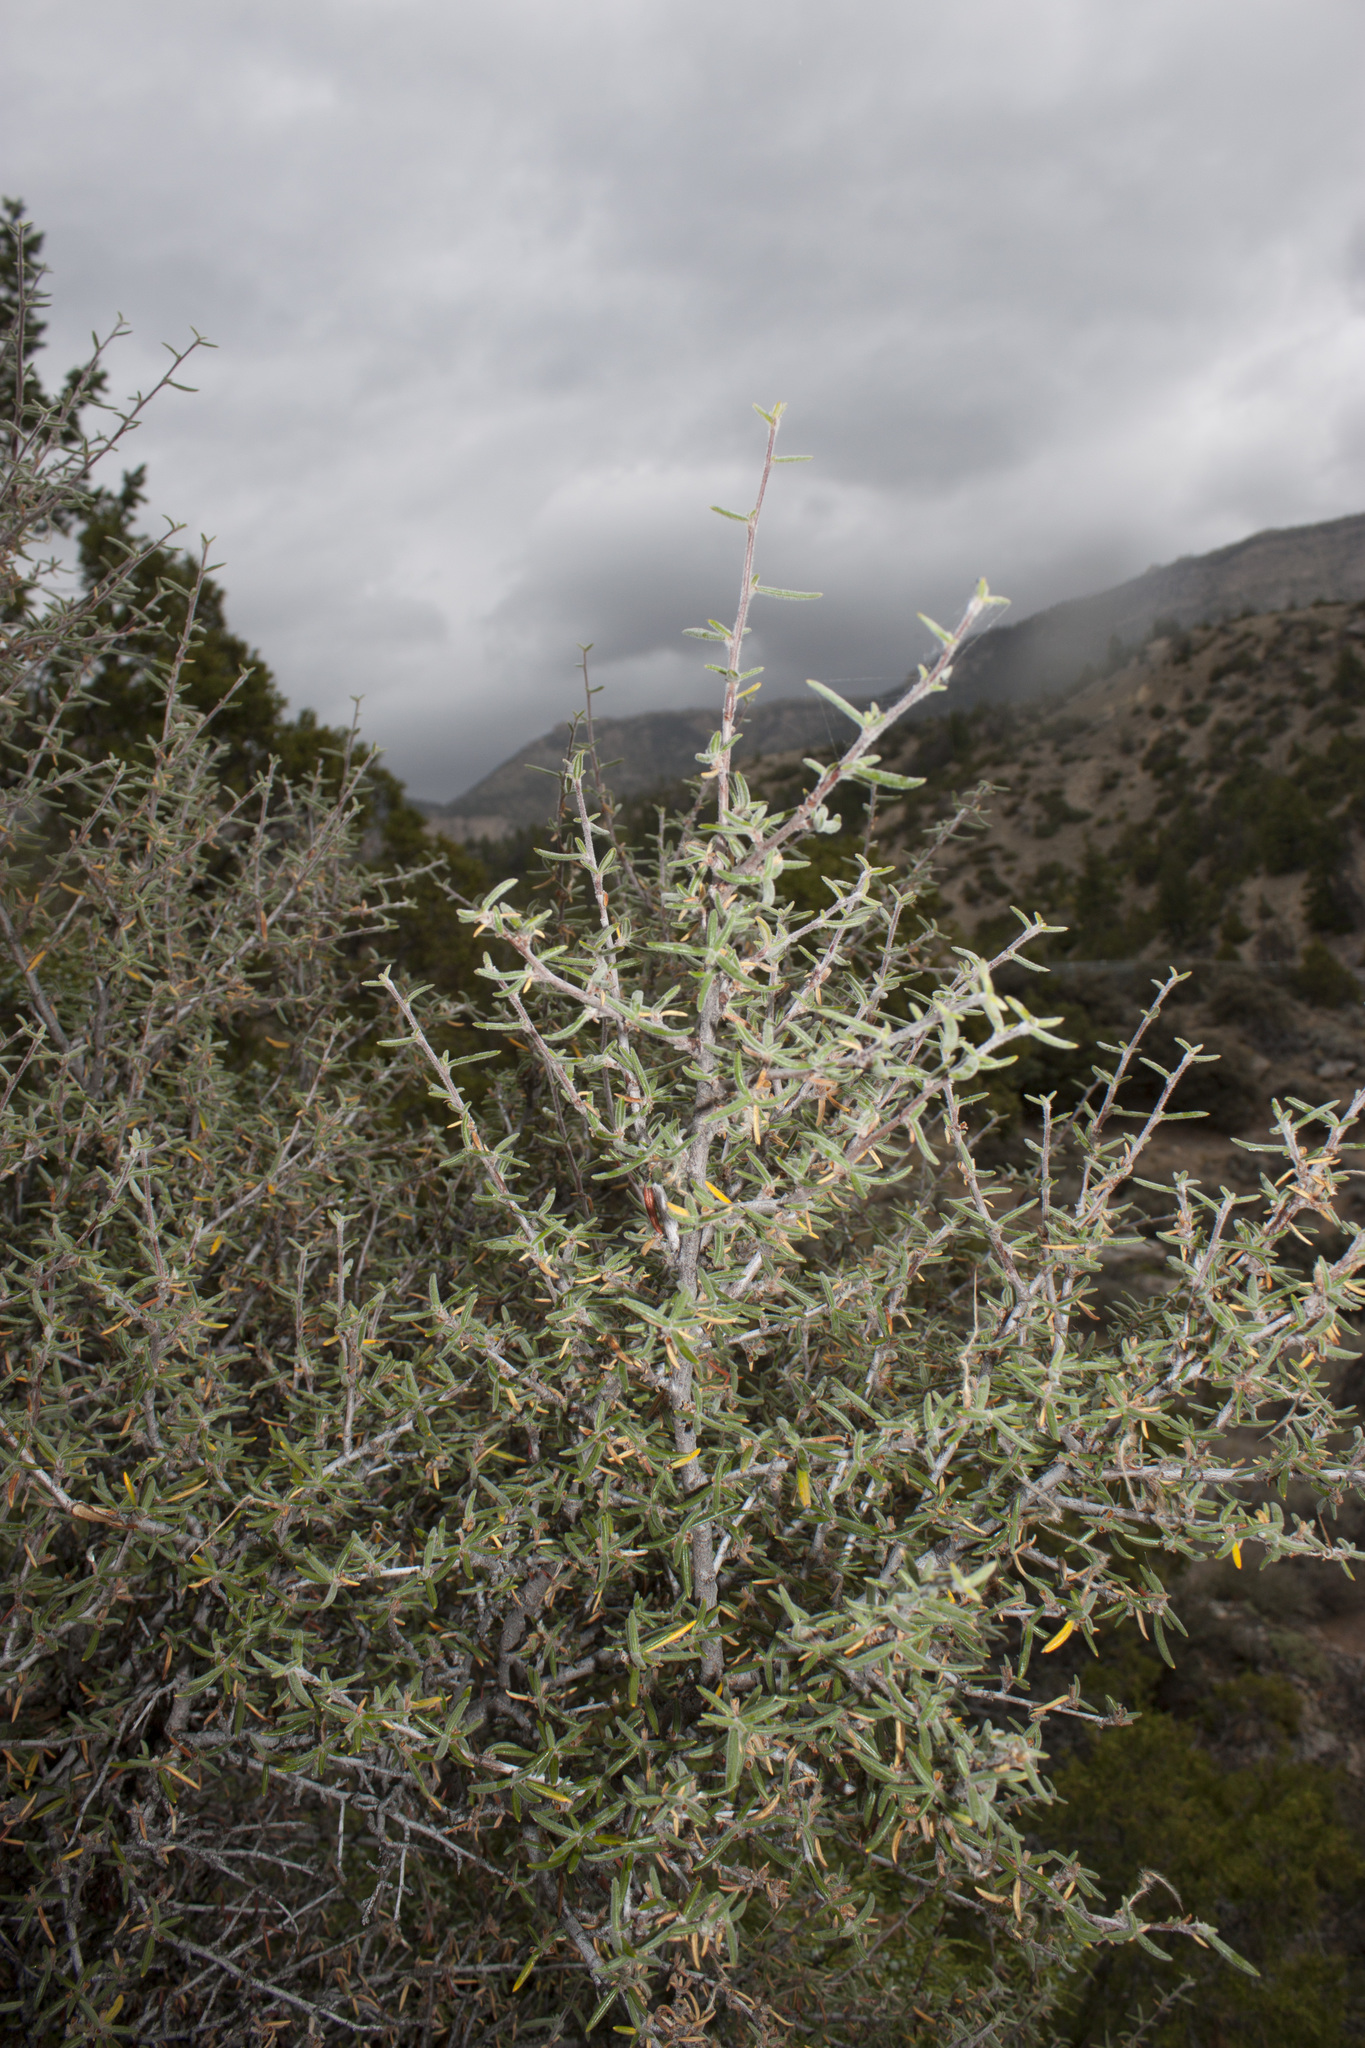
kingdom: Plantae
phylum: Tracheophyta
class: Magnoliopsida
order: Rosales
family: Rosaceae
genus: Cercocarpus
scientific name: Cercocarpus ledifolius
